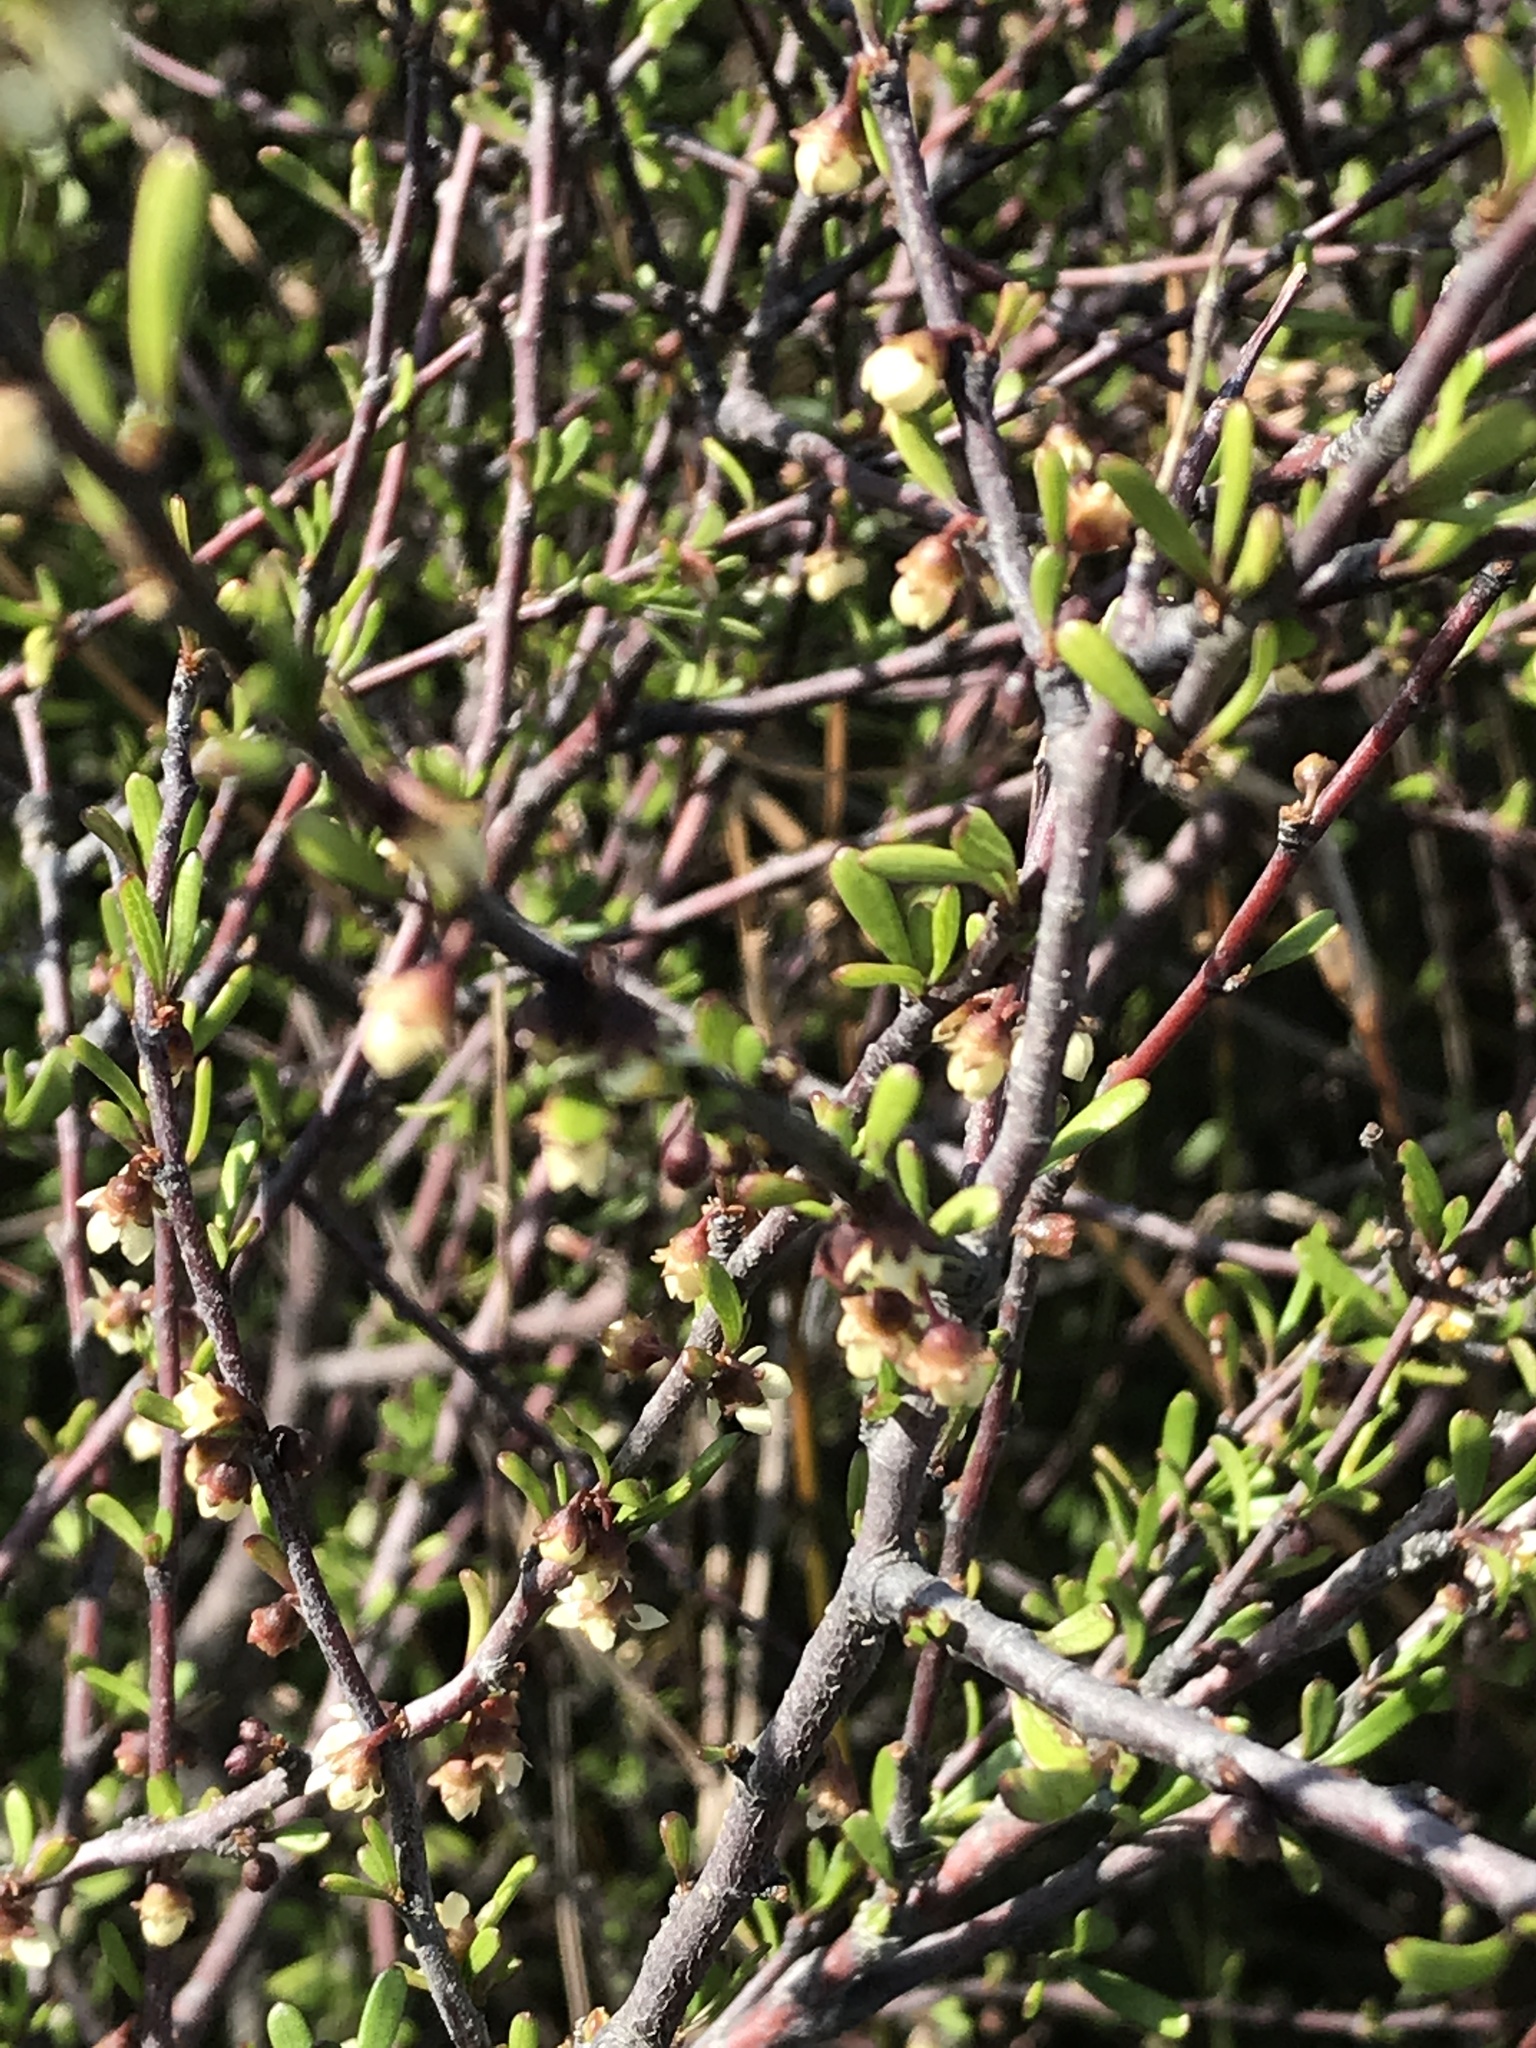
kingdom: Plantae
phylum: Tracheophyta
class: Magnoliopsida
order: Malvales
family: Malvaceae
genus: Plagianthus
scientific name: Plagianthus divaricatus
